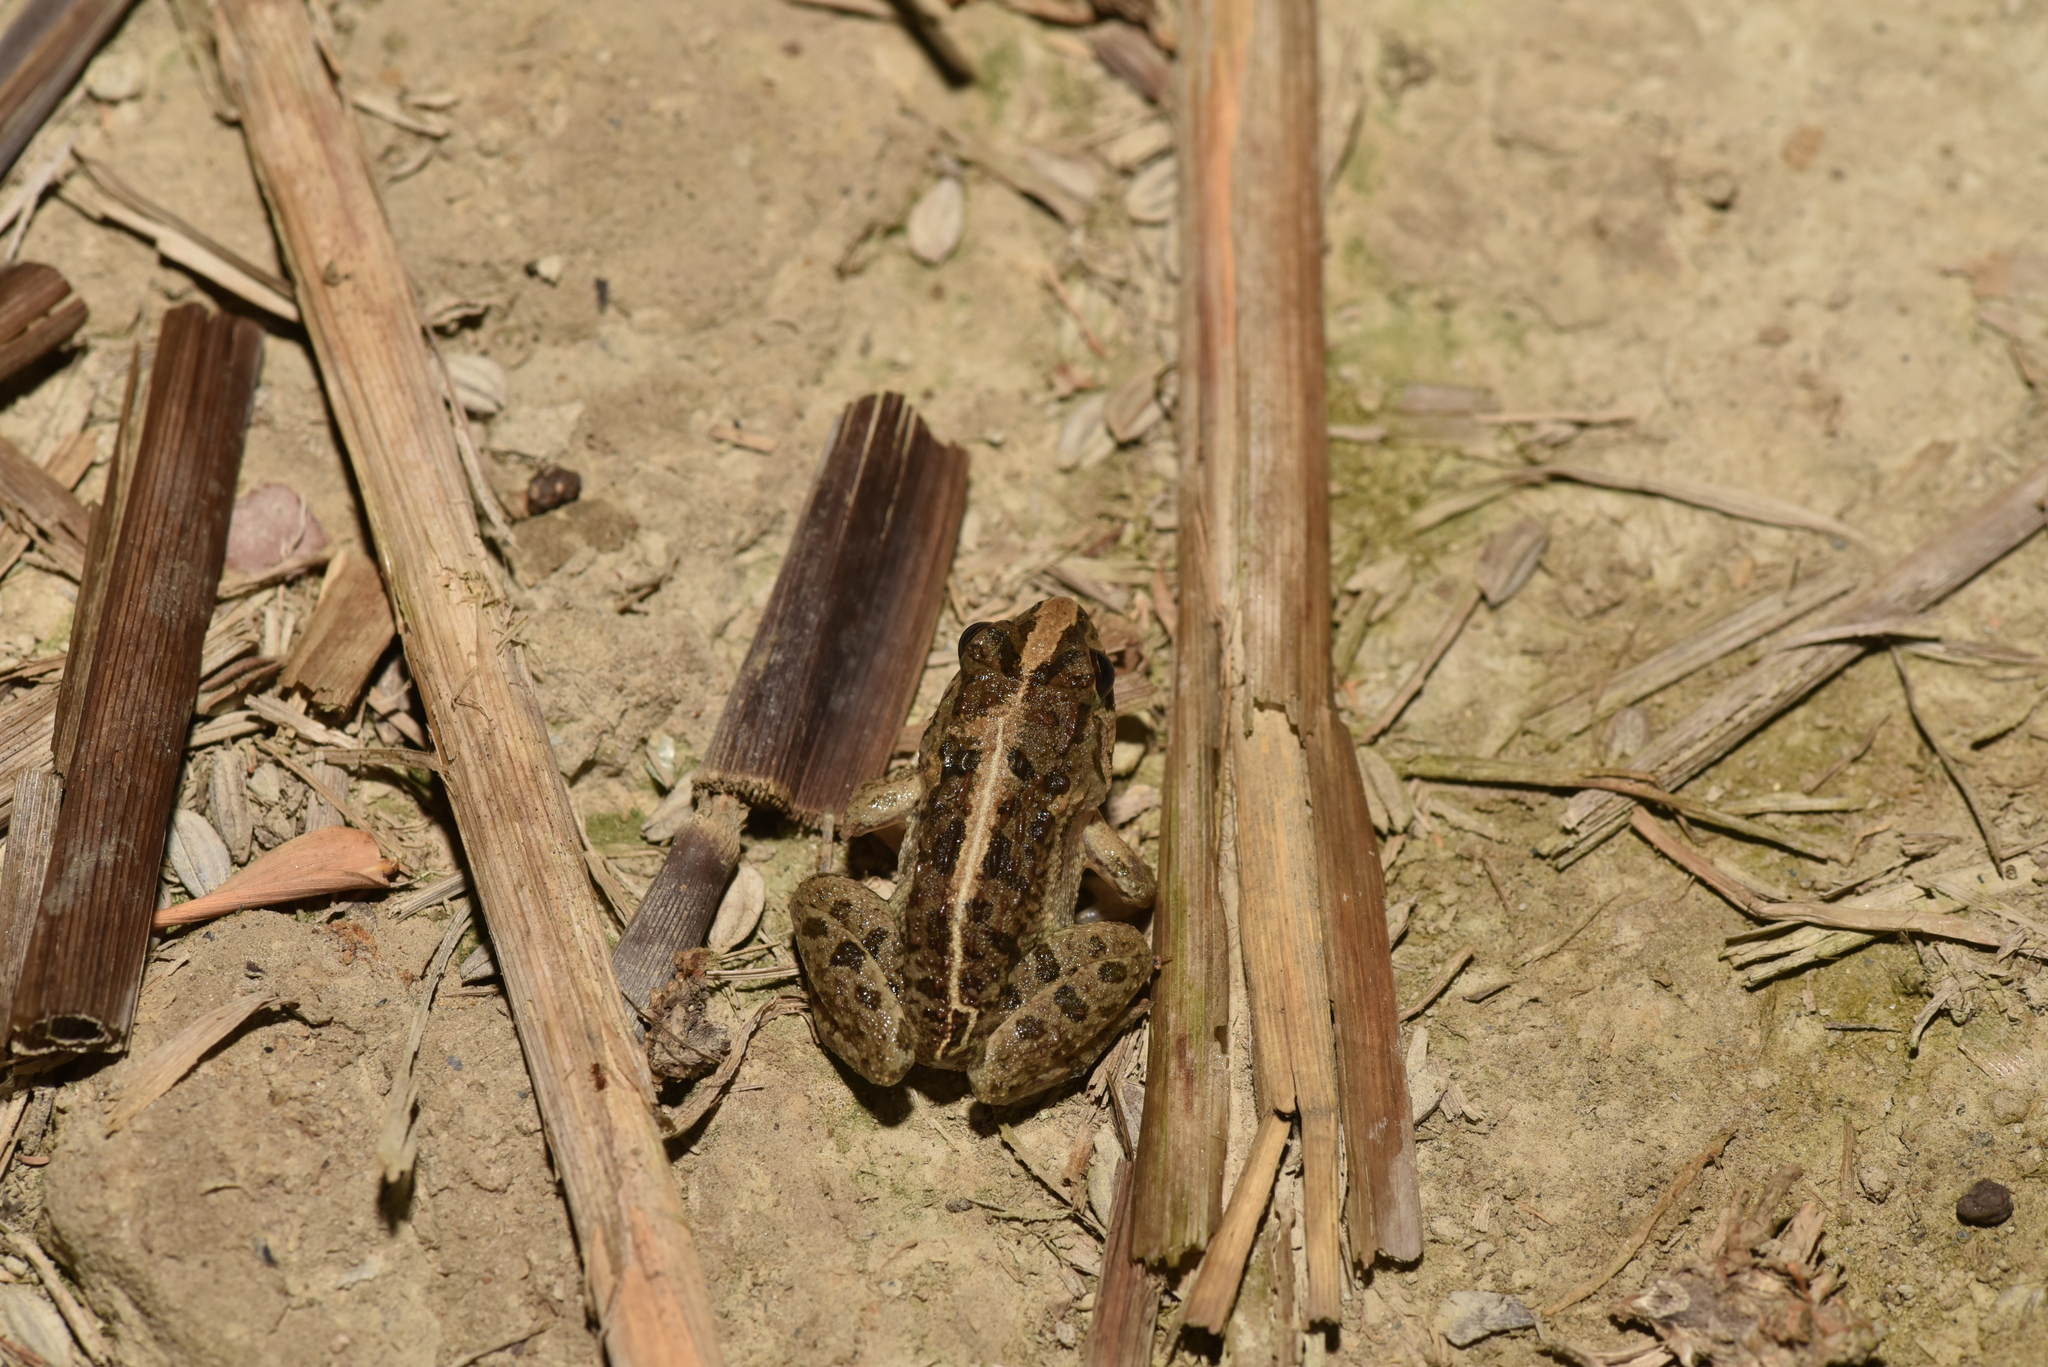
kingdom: Animalia
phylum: Chordata
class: Amphibia
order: Anura
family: Dicroglossidae
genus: Fejervarya
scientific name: Fejervarya limnocharis
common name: Asian grass frog/common pond frog/field frog/grass frog/indian rice frog
